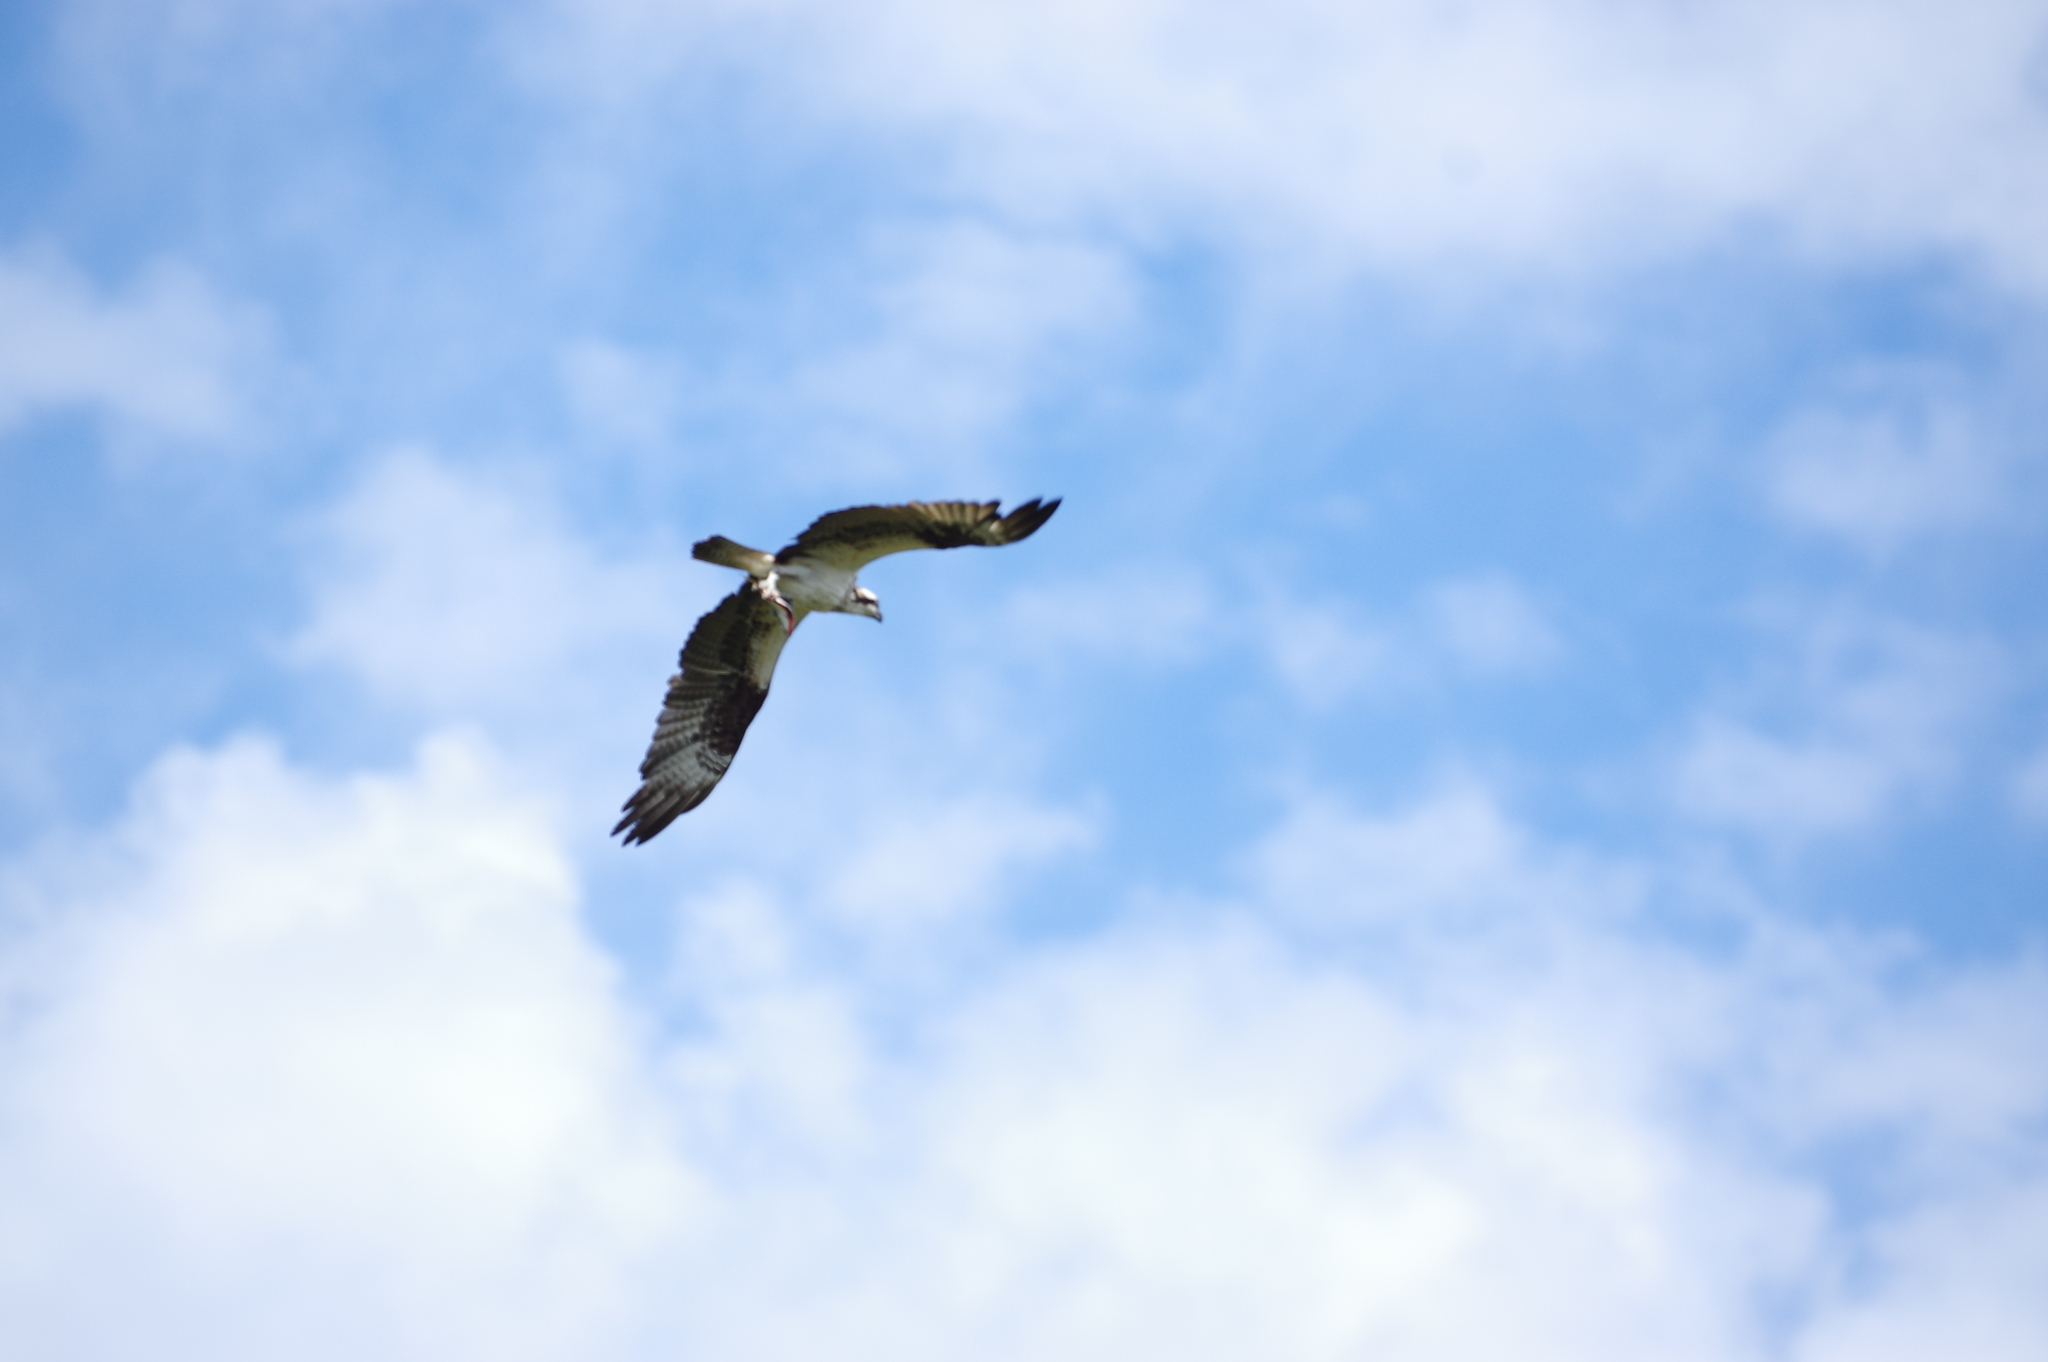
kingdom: Animalia
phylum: Chordata
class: Aves
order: Accipitriformes
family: Pandionidae
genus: Pandion
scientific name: Pandion haliaetus
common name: Osprey
